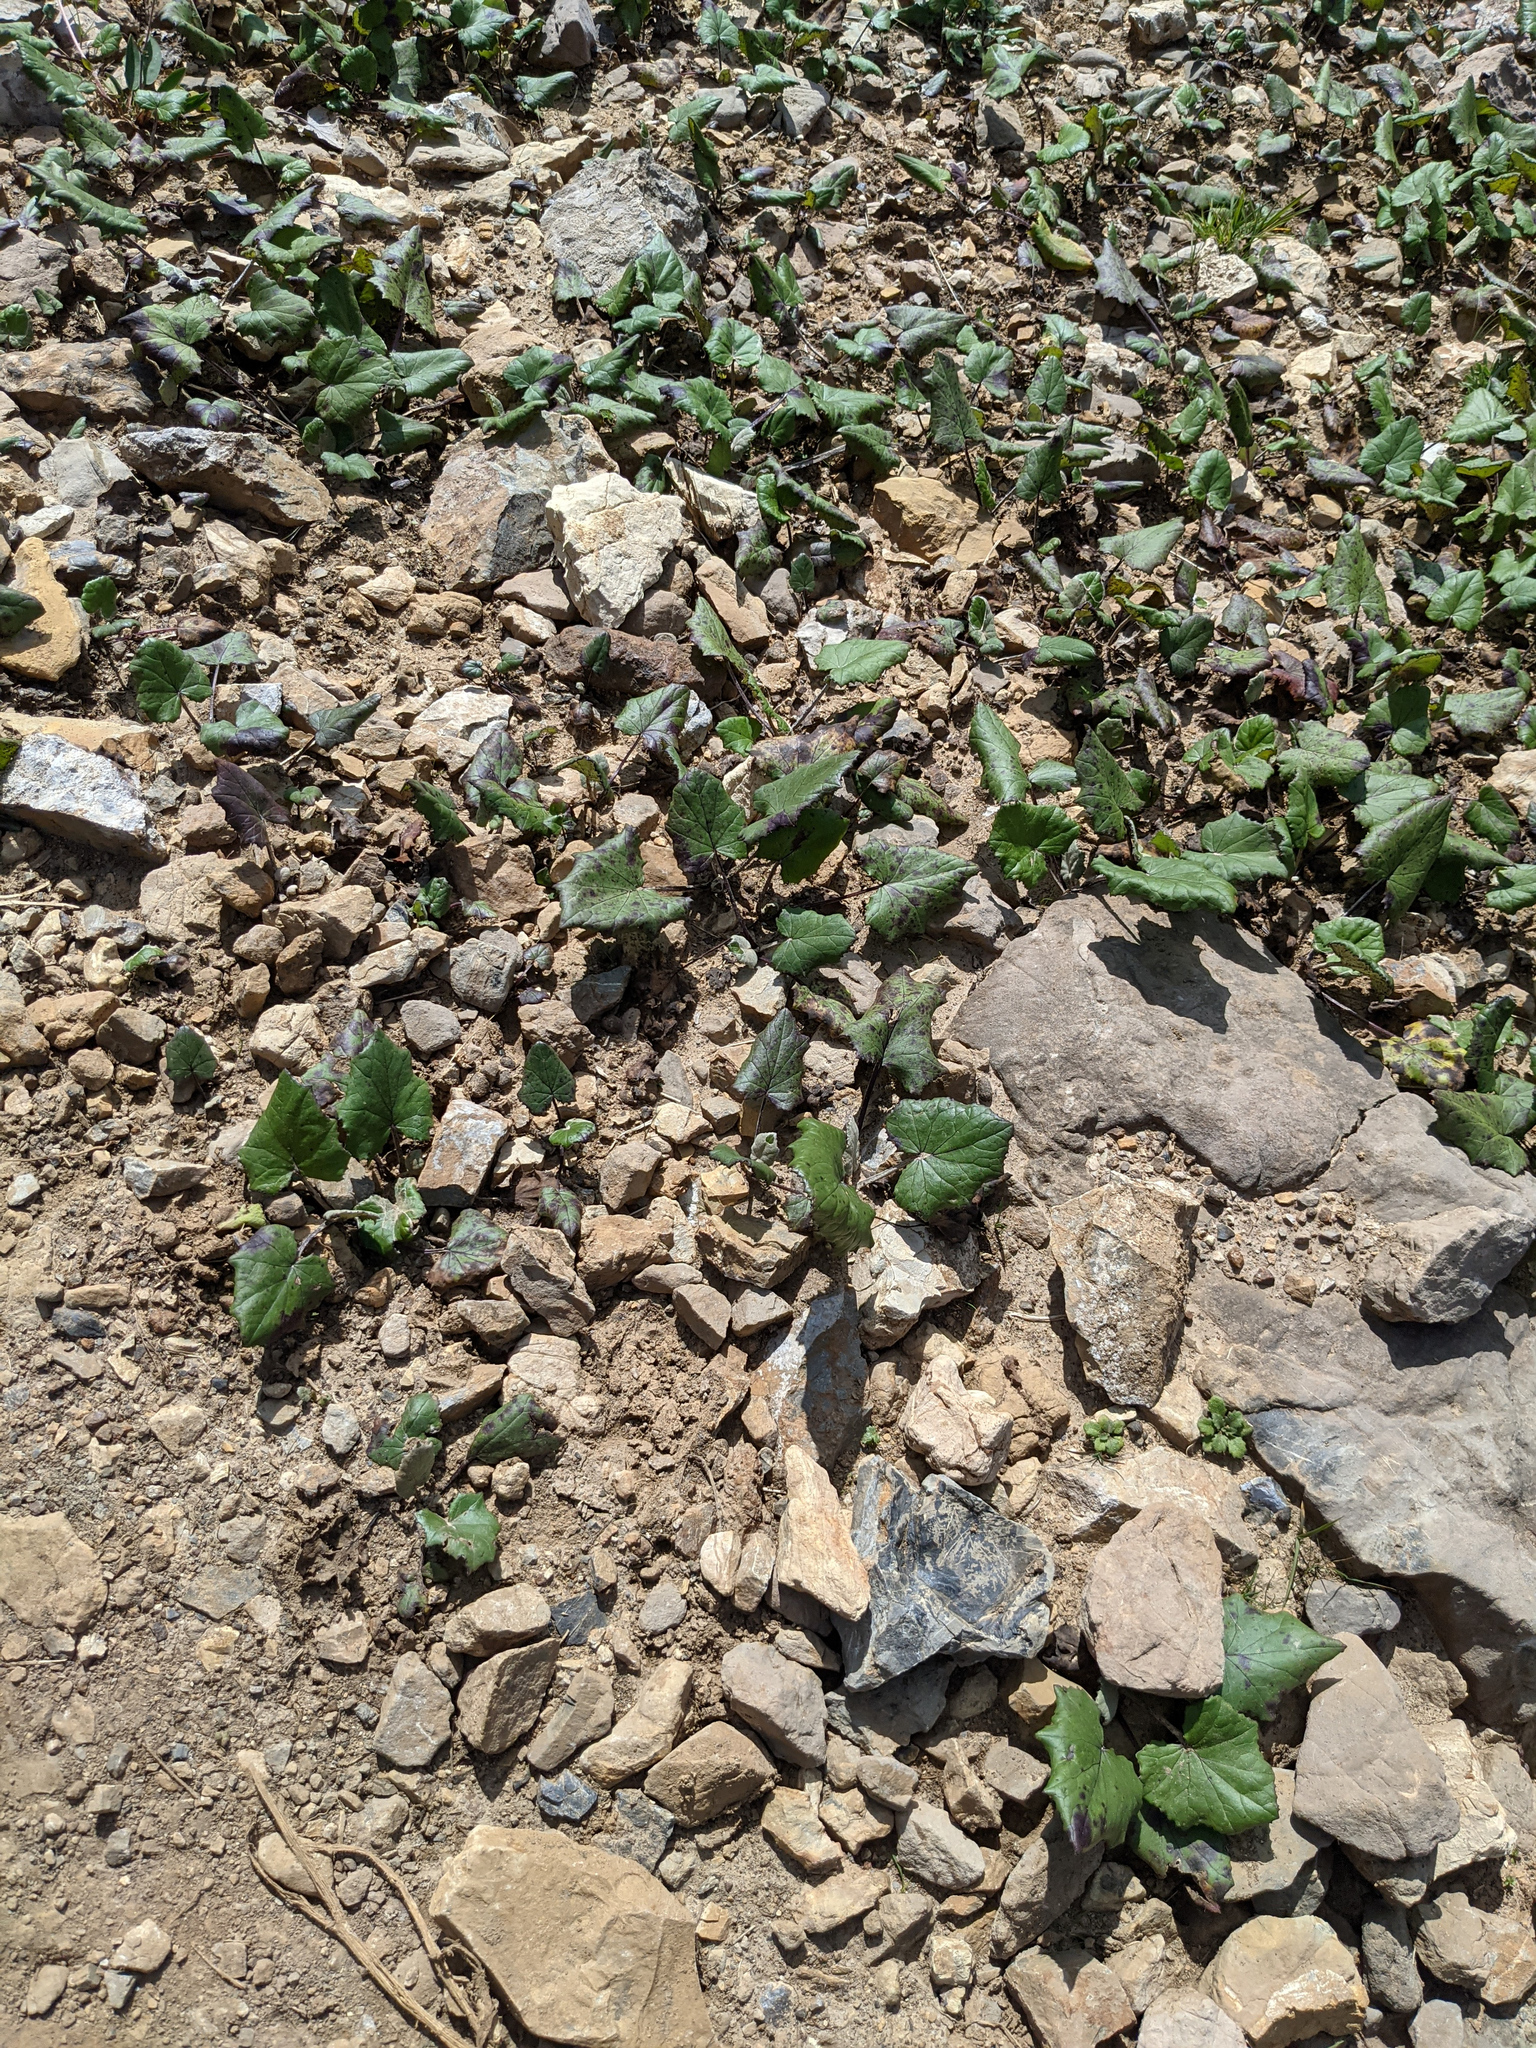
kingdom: Plantae
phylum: Tracheophyta
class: Magnoliopsida
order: Asterales
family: Asteraceae
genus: Tussilago
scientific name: Tussilago farfara
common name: Coltsfoot
